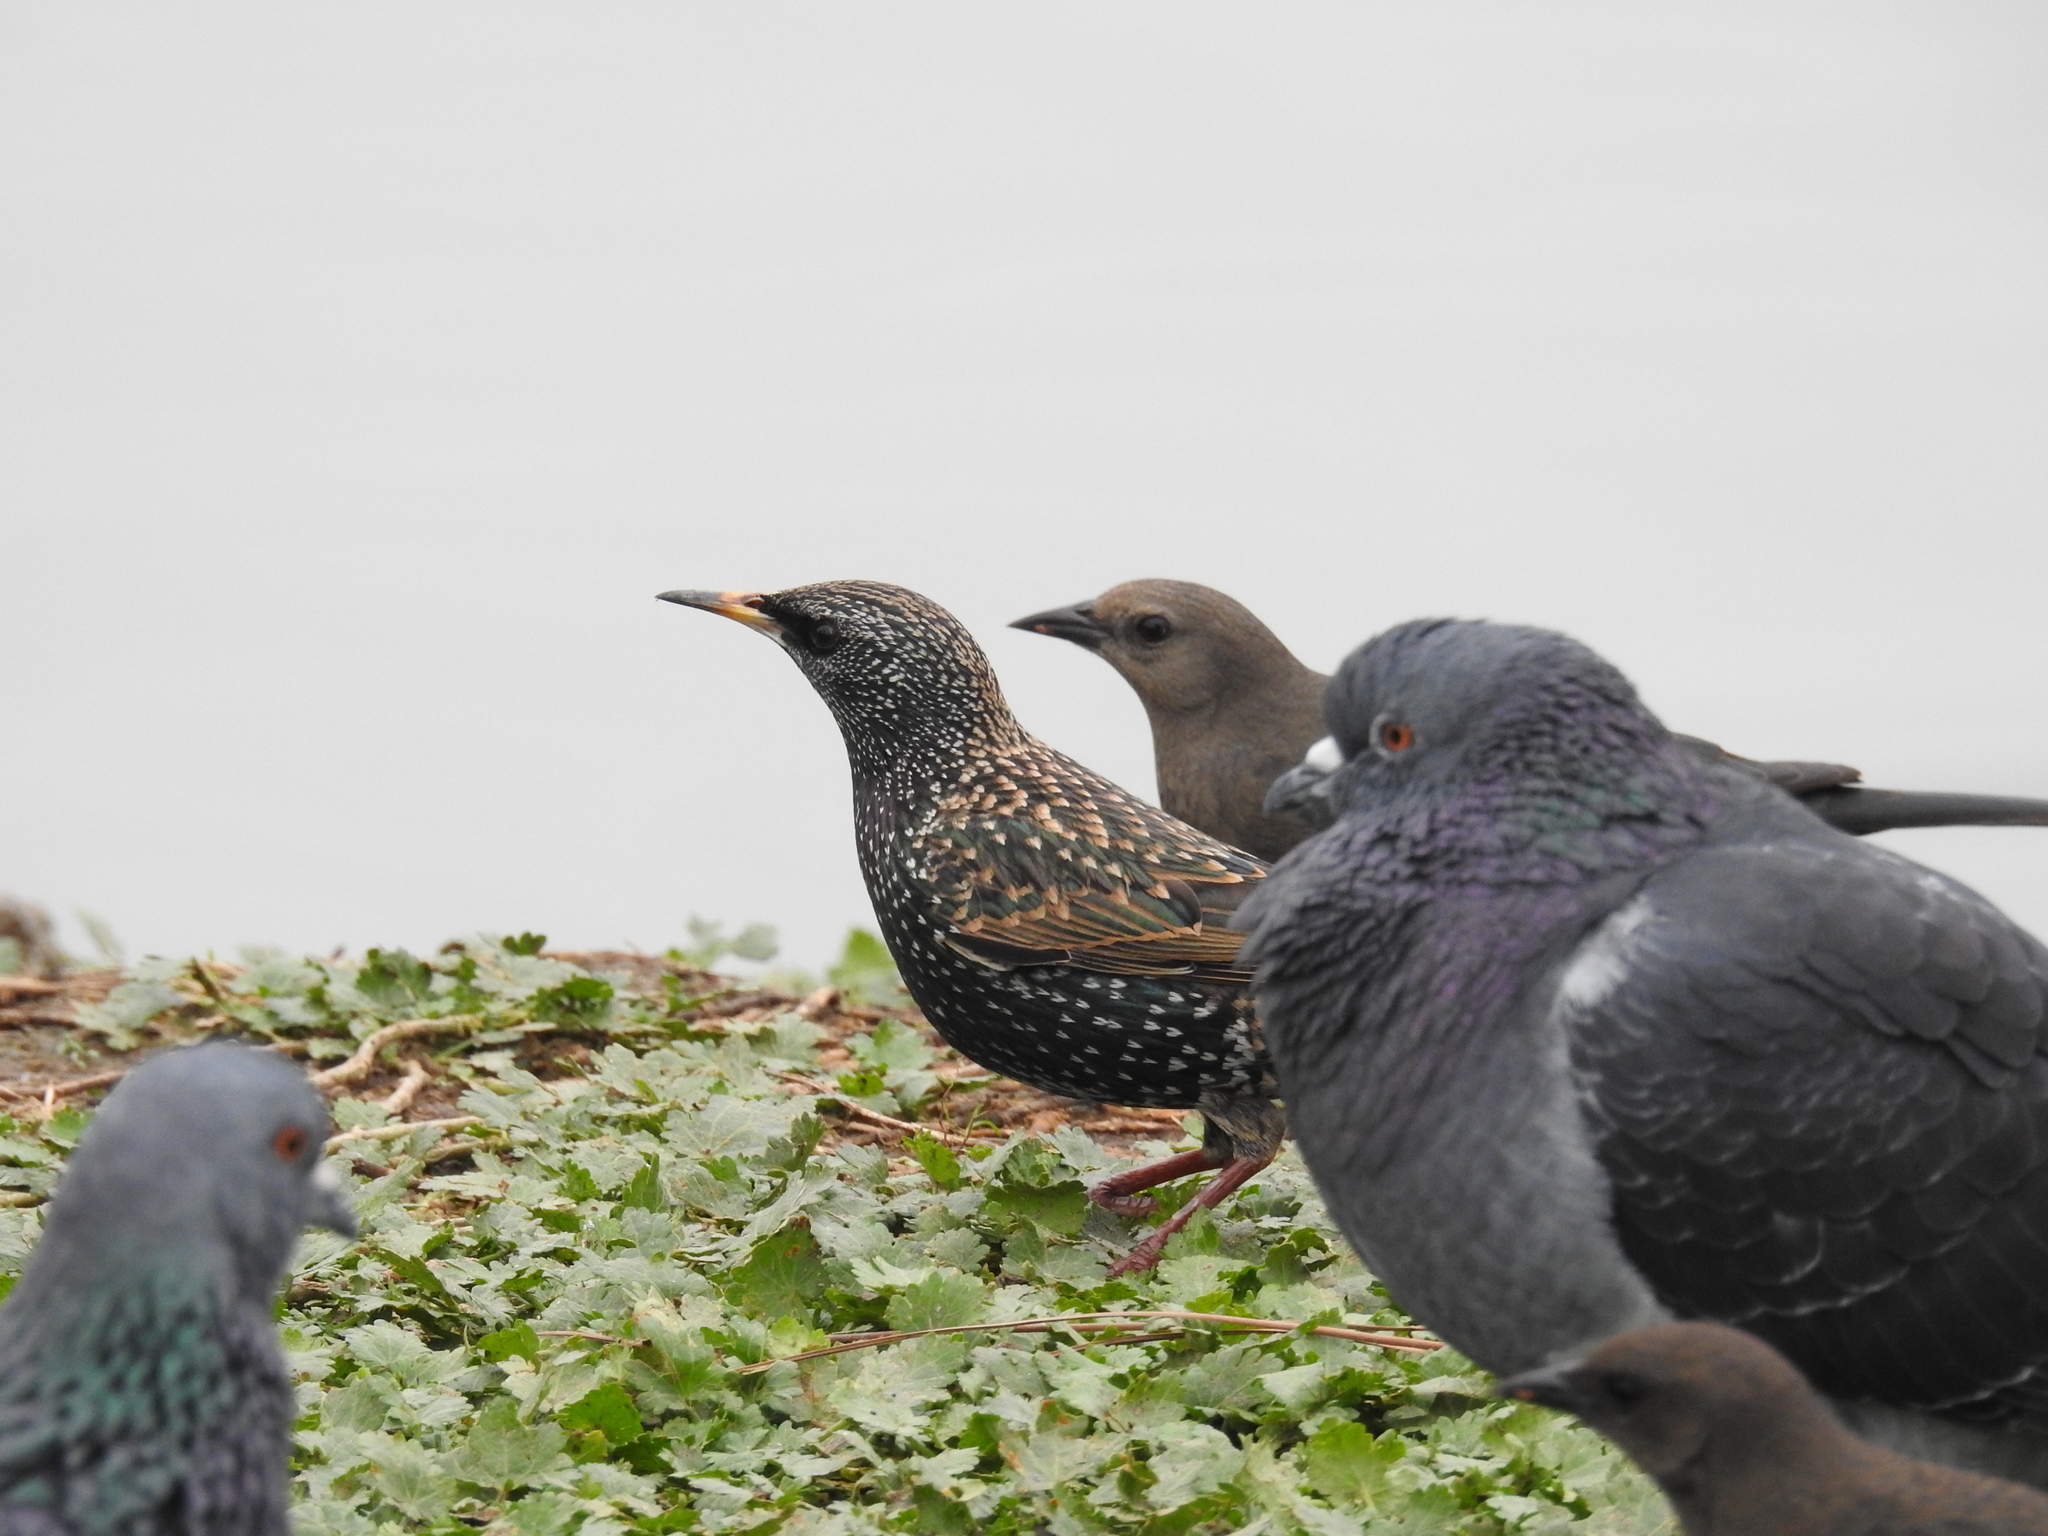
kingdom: Animalia
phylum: Chordata
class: Aves
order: Passeriformes
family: Sturnidae
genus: Sturnus
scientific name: Sturnus vulgaris
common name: Common starling
